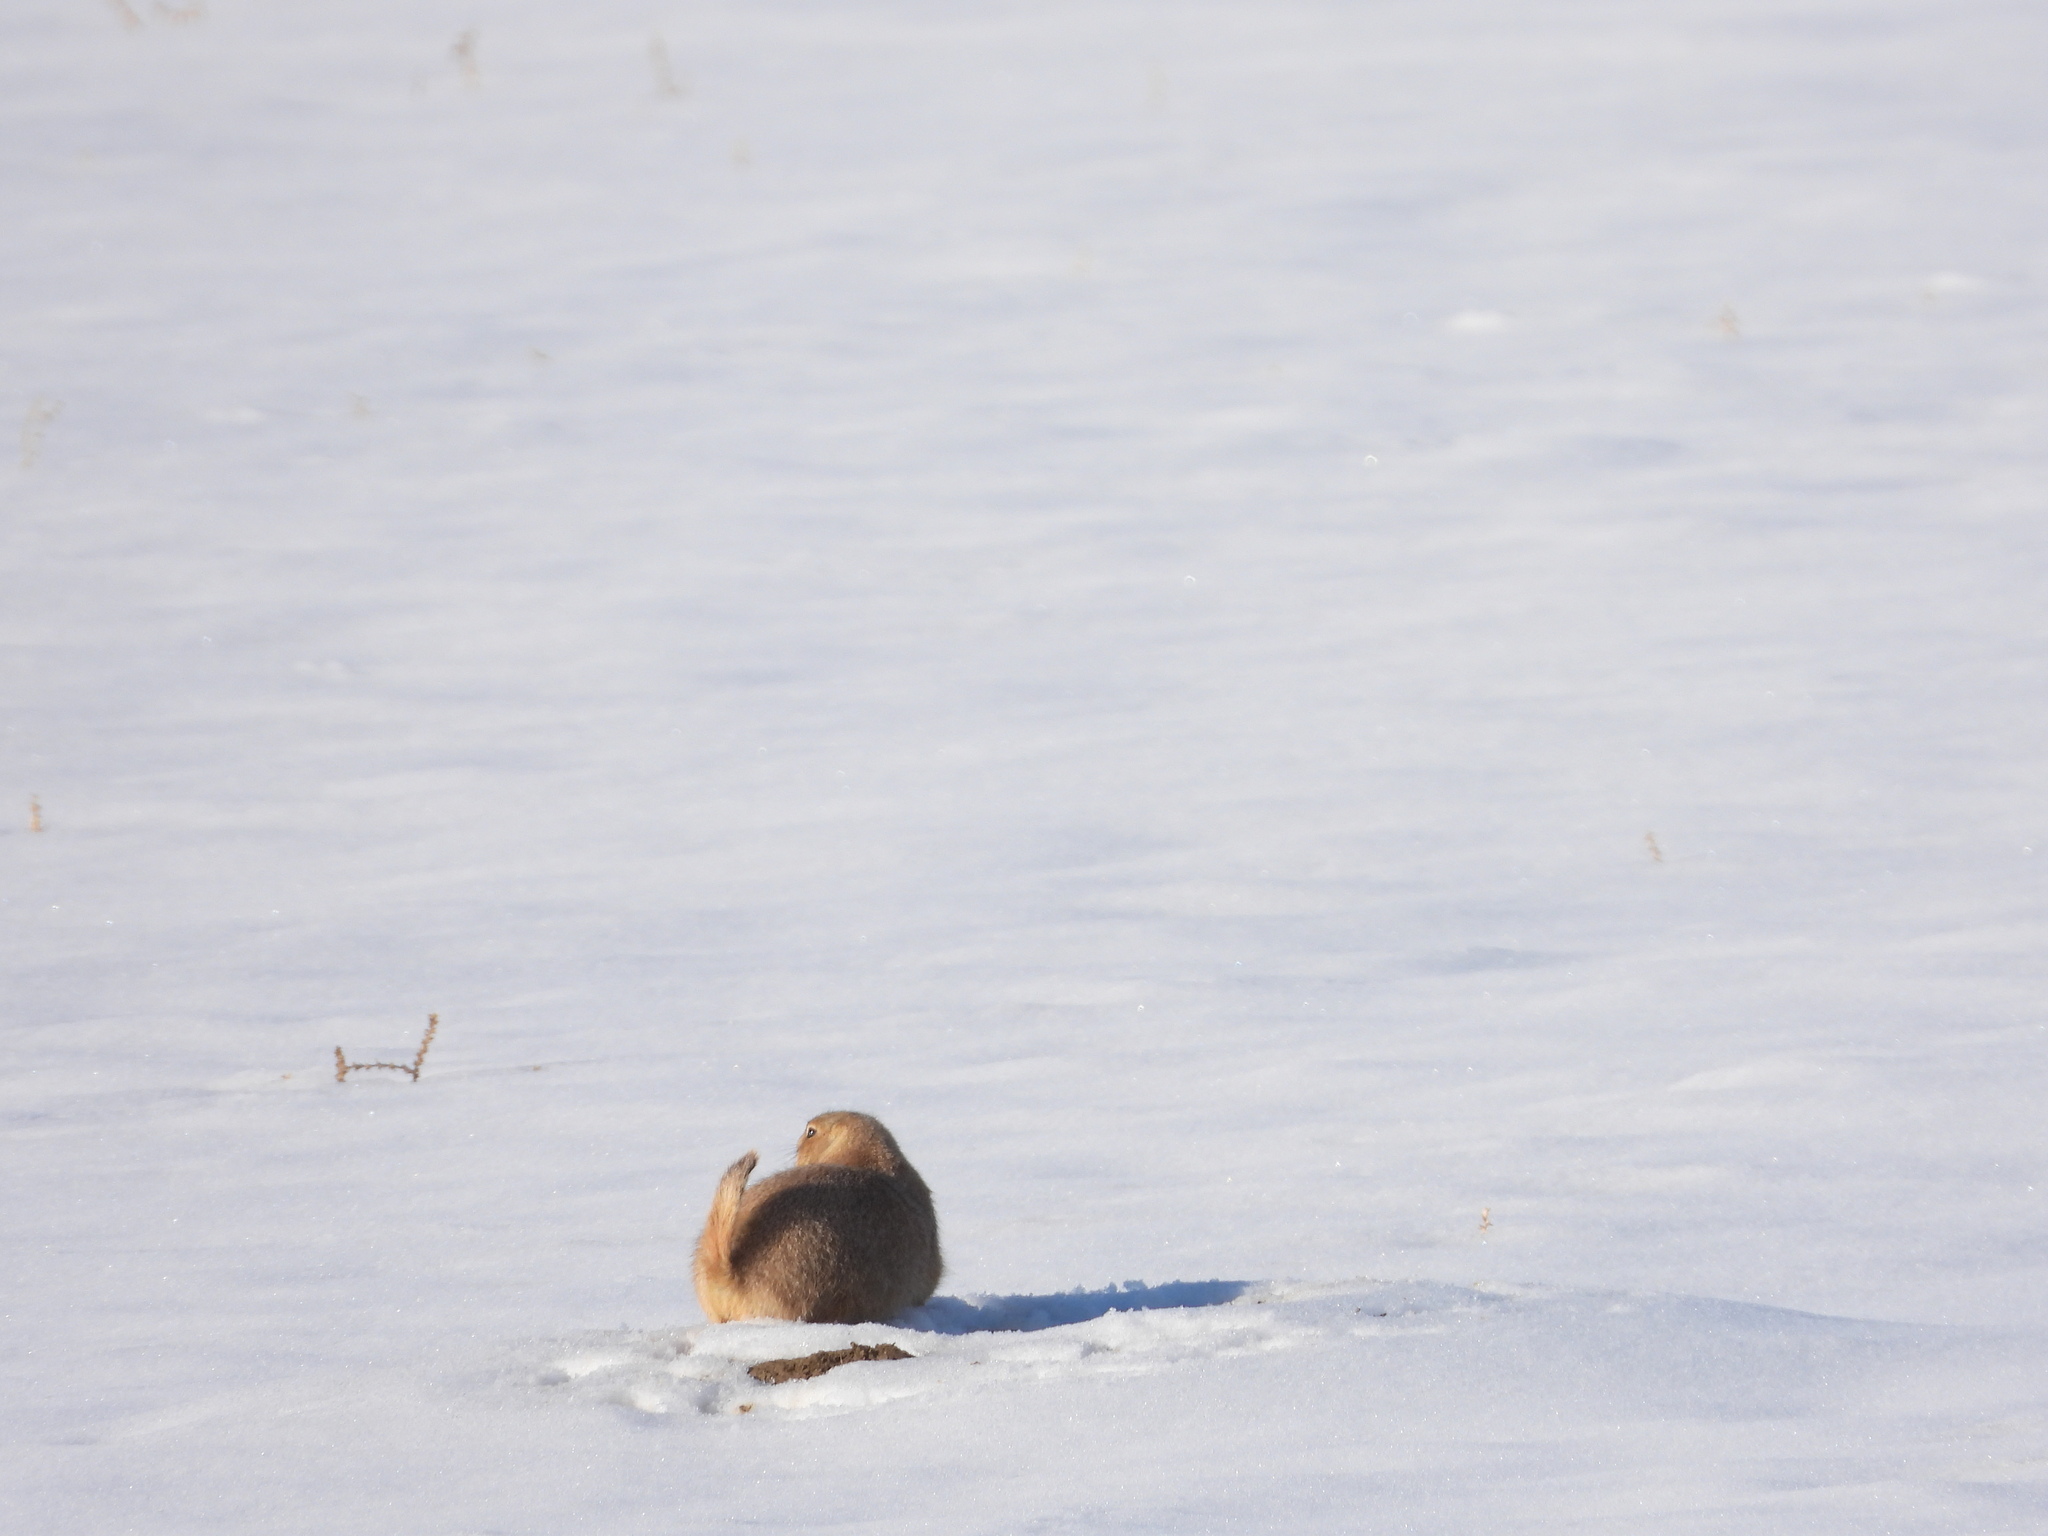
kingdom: Animalia
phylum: Chordata
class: Mammalia
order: Rodentia
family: Sciuridae
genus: Cynomys
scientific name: Cynomys ludovicianus
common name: Black-tailed prairie dog
